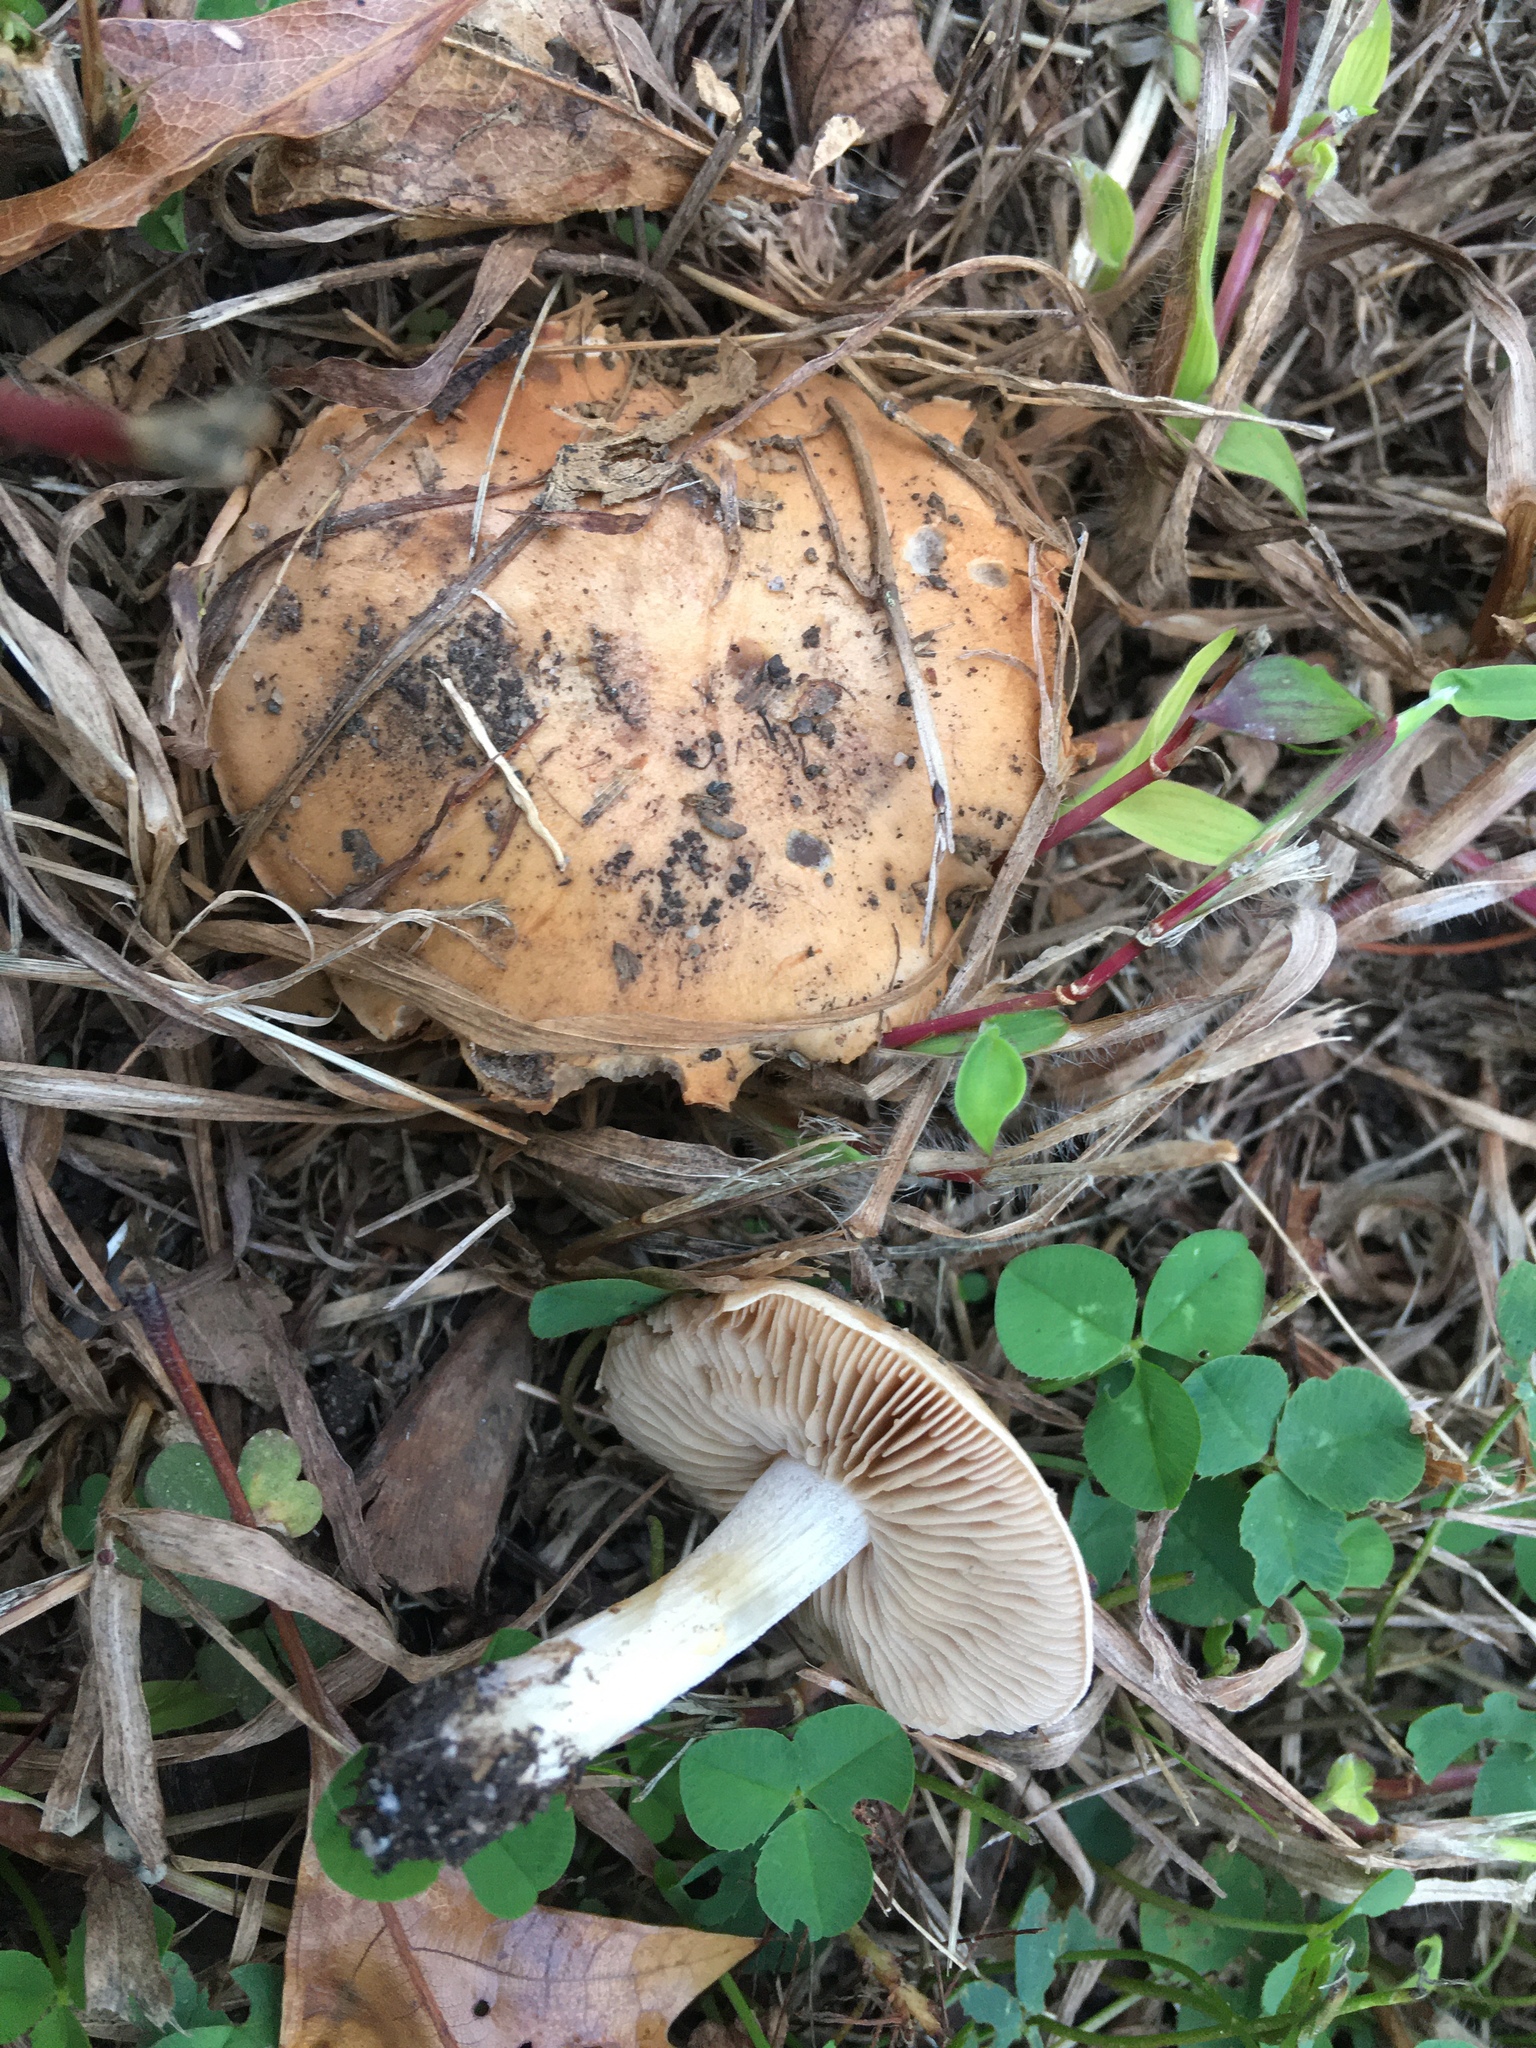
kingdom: Fungi
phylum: Basidiomycota
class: Agaricomycetes
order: Agaricales
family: Hymenogastraceae
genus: Hebeloma
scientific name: Hebeloma cavipes
